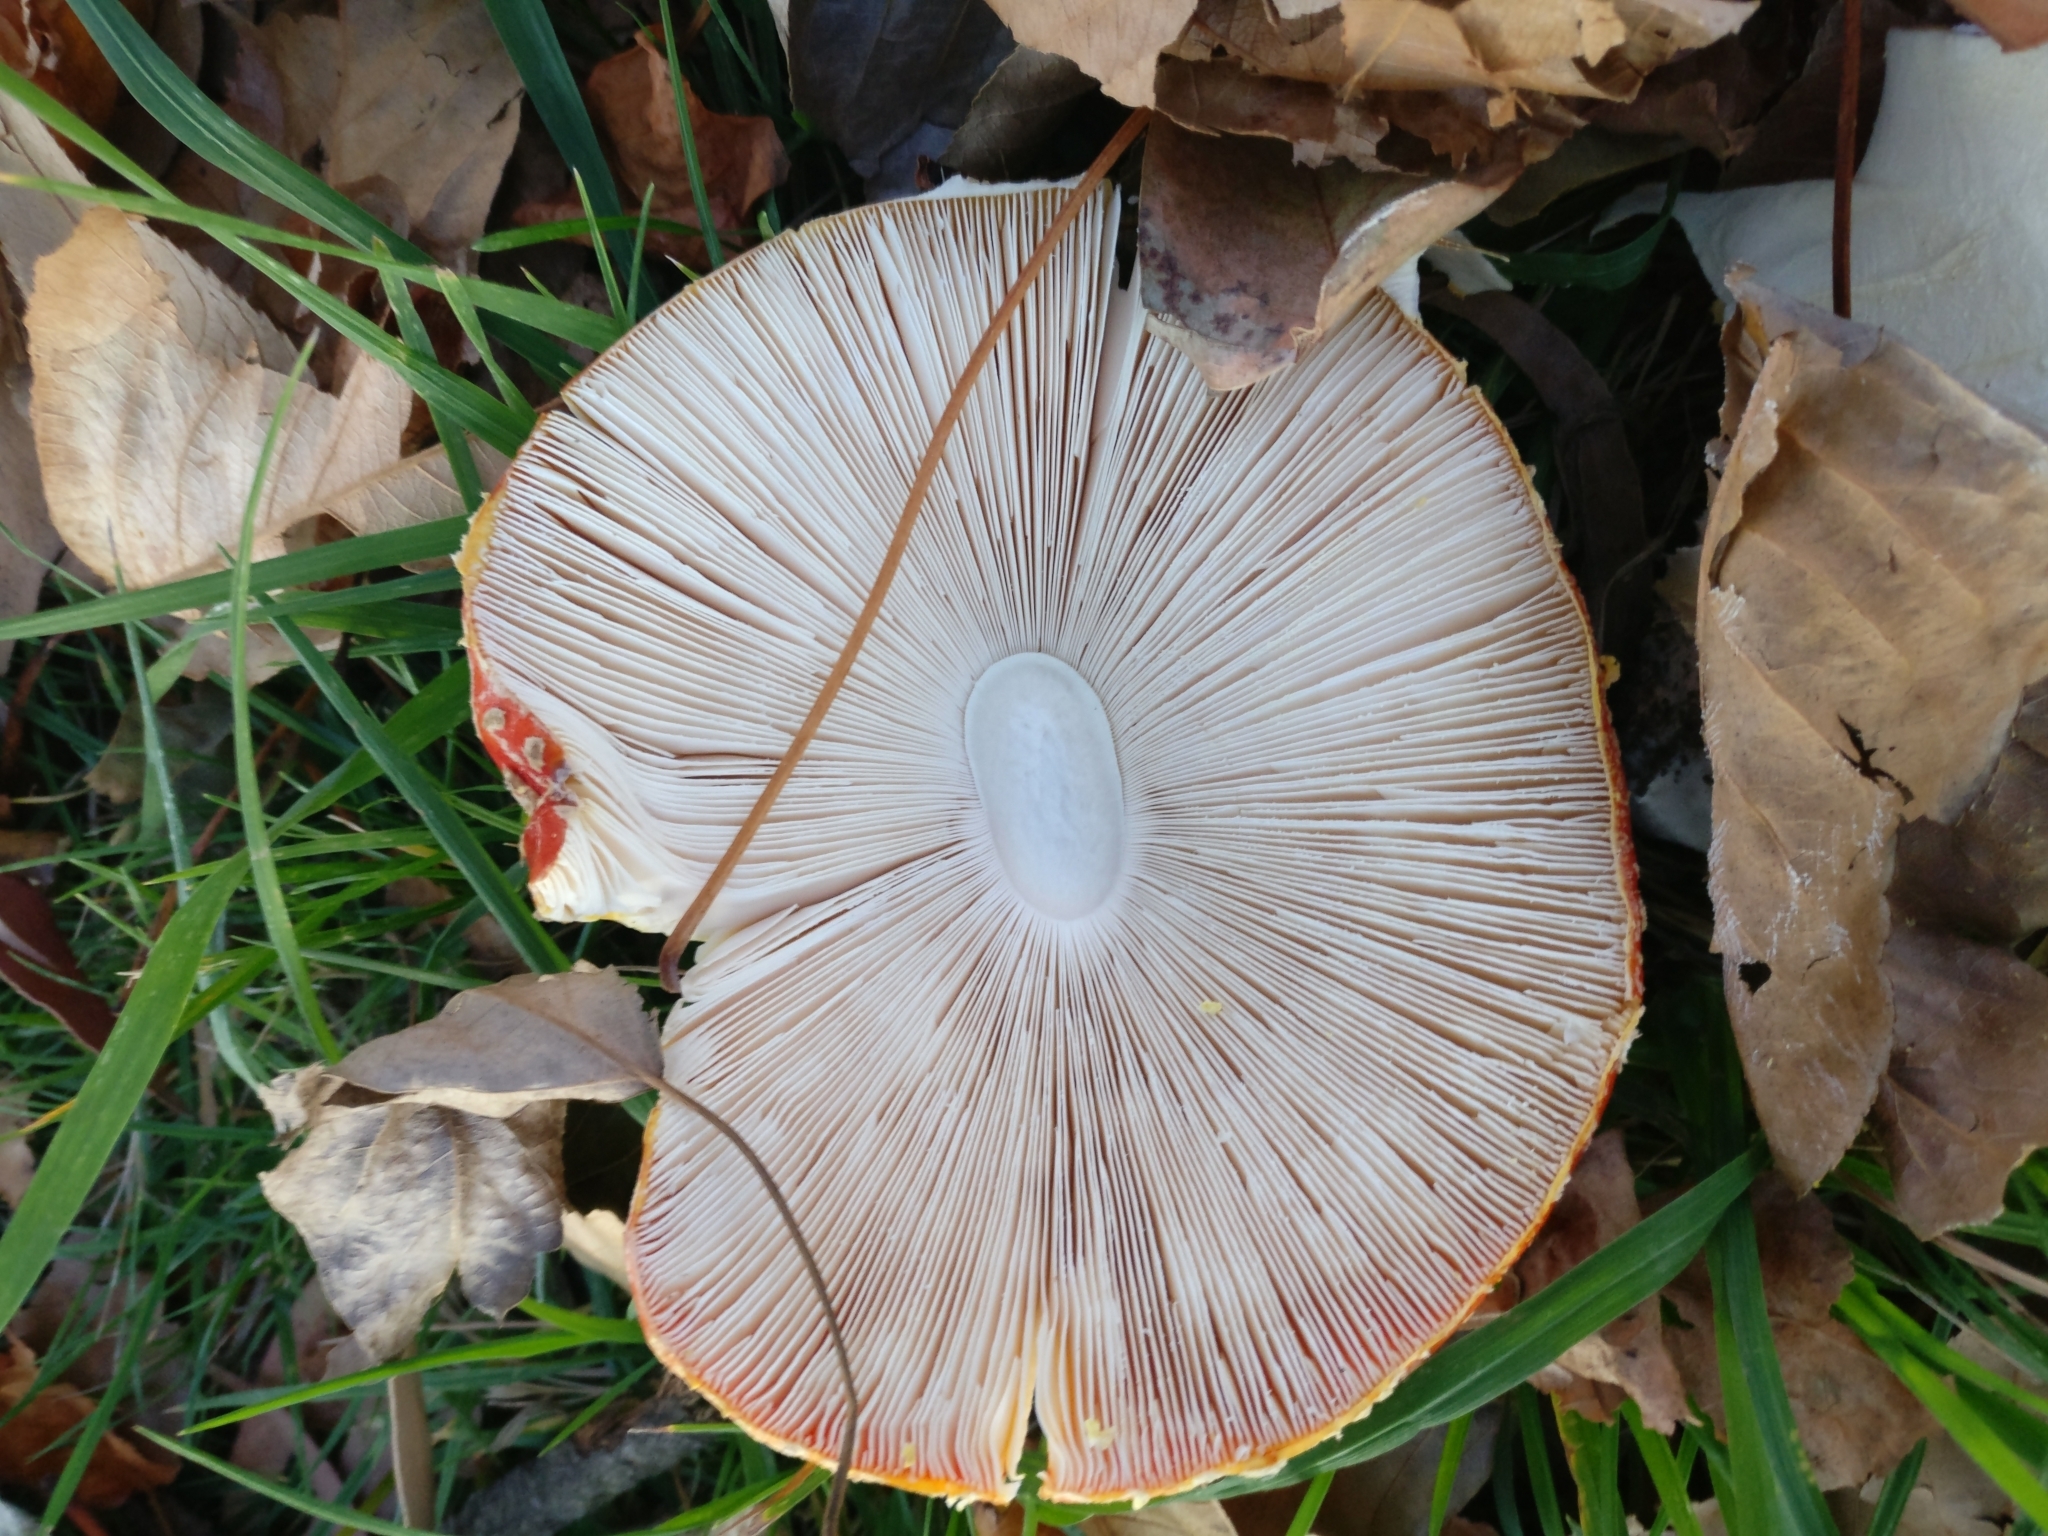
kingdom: Fungi
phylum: Basidiomycota
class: Agaricomycetes
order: Agaricales
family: Amanitaceae
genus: Amanita
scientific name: Amanita muscaria
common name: Fly agaric
